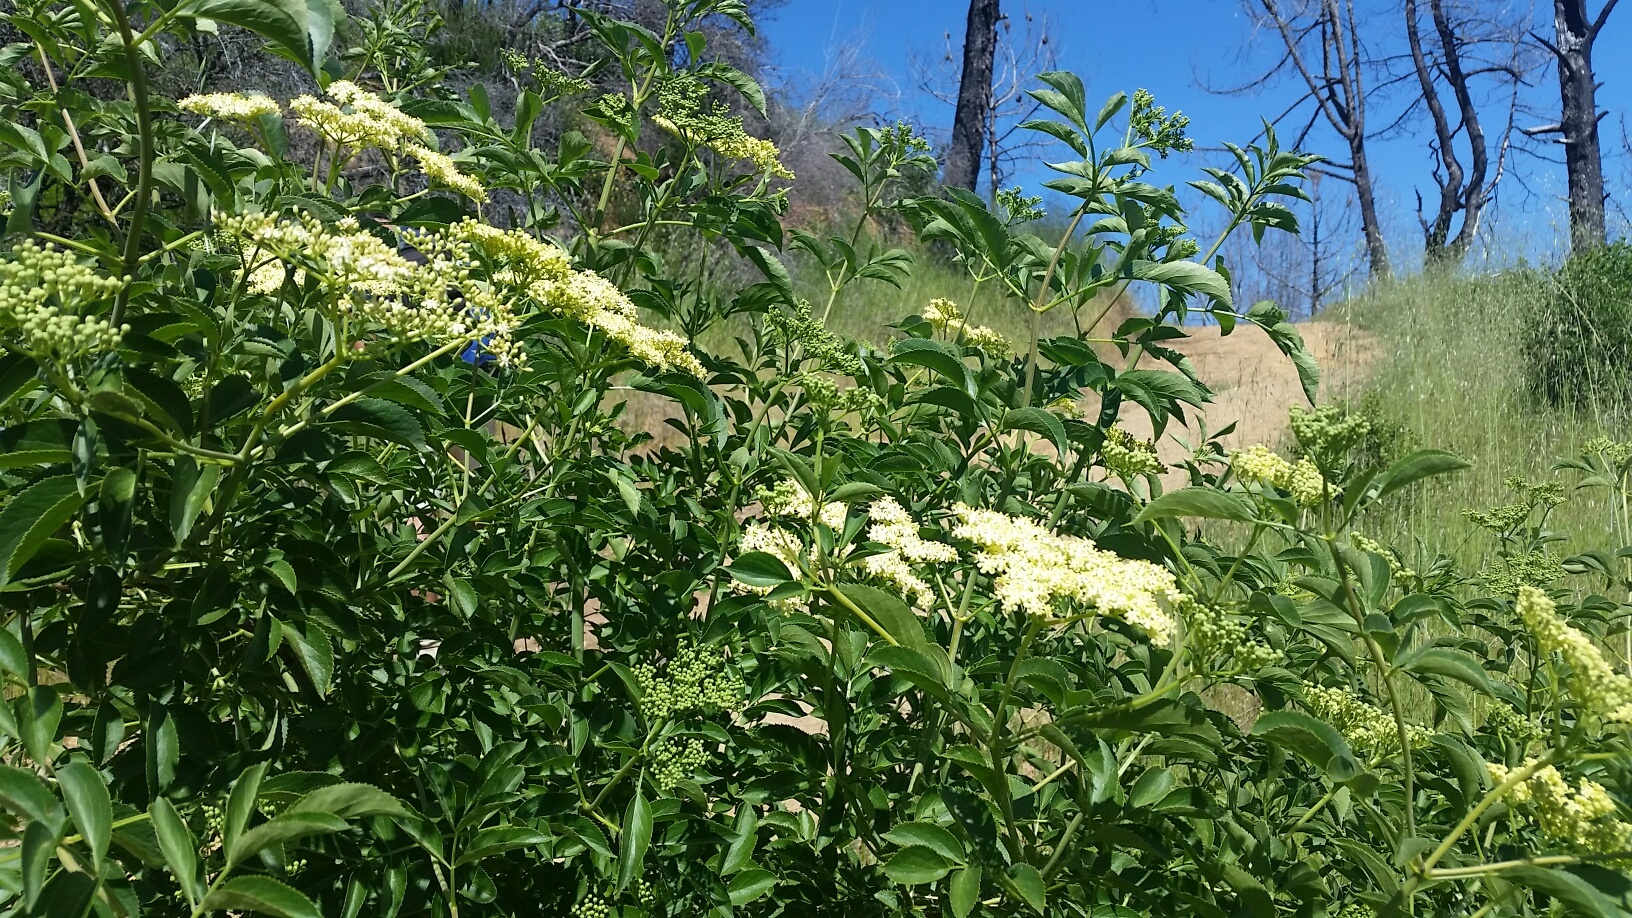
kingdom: Plantae
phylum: Tracheophyta
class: Magnoliopsida
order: Dipsacales
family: Viburnaceae
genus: Sambucus
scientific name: Sambucus cerulea
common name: Blue elder
